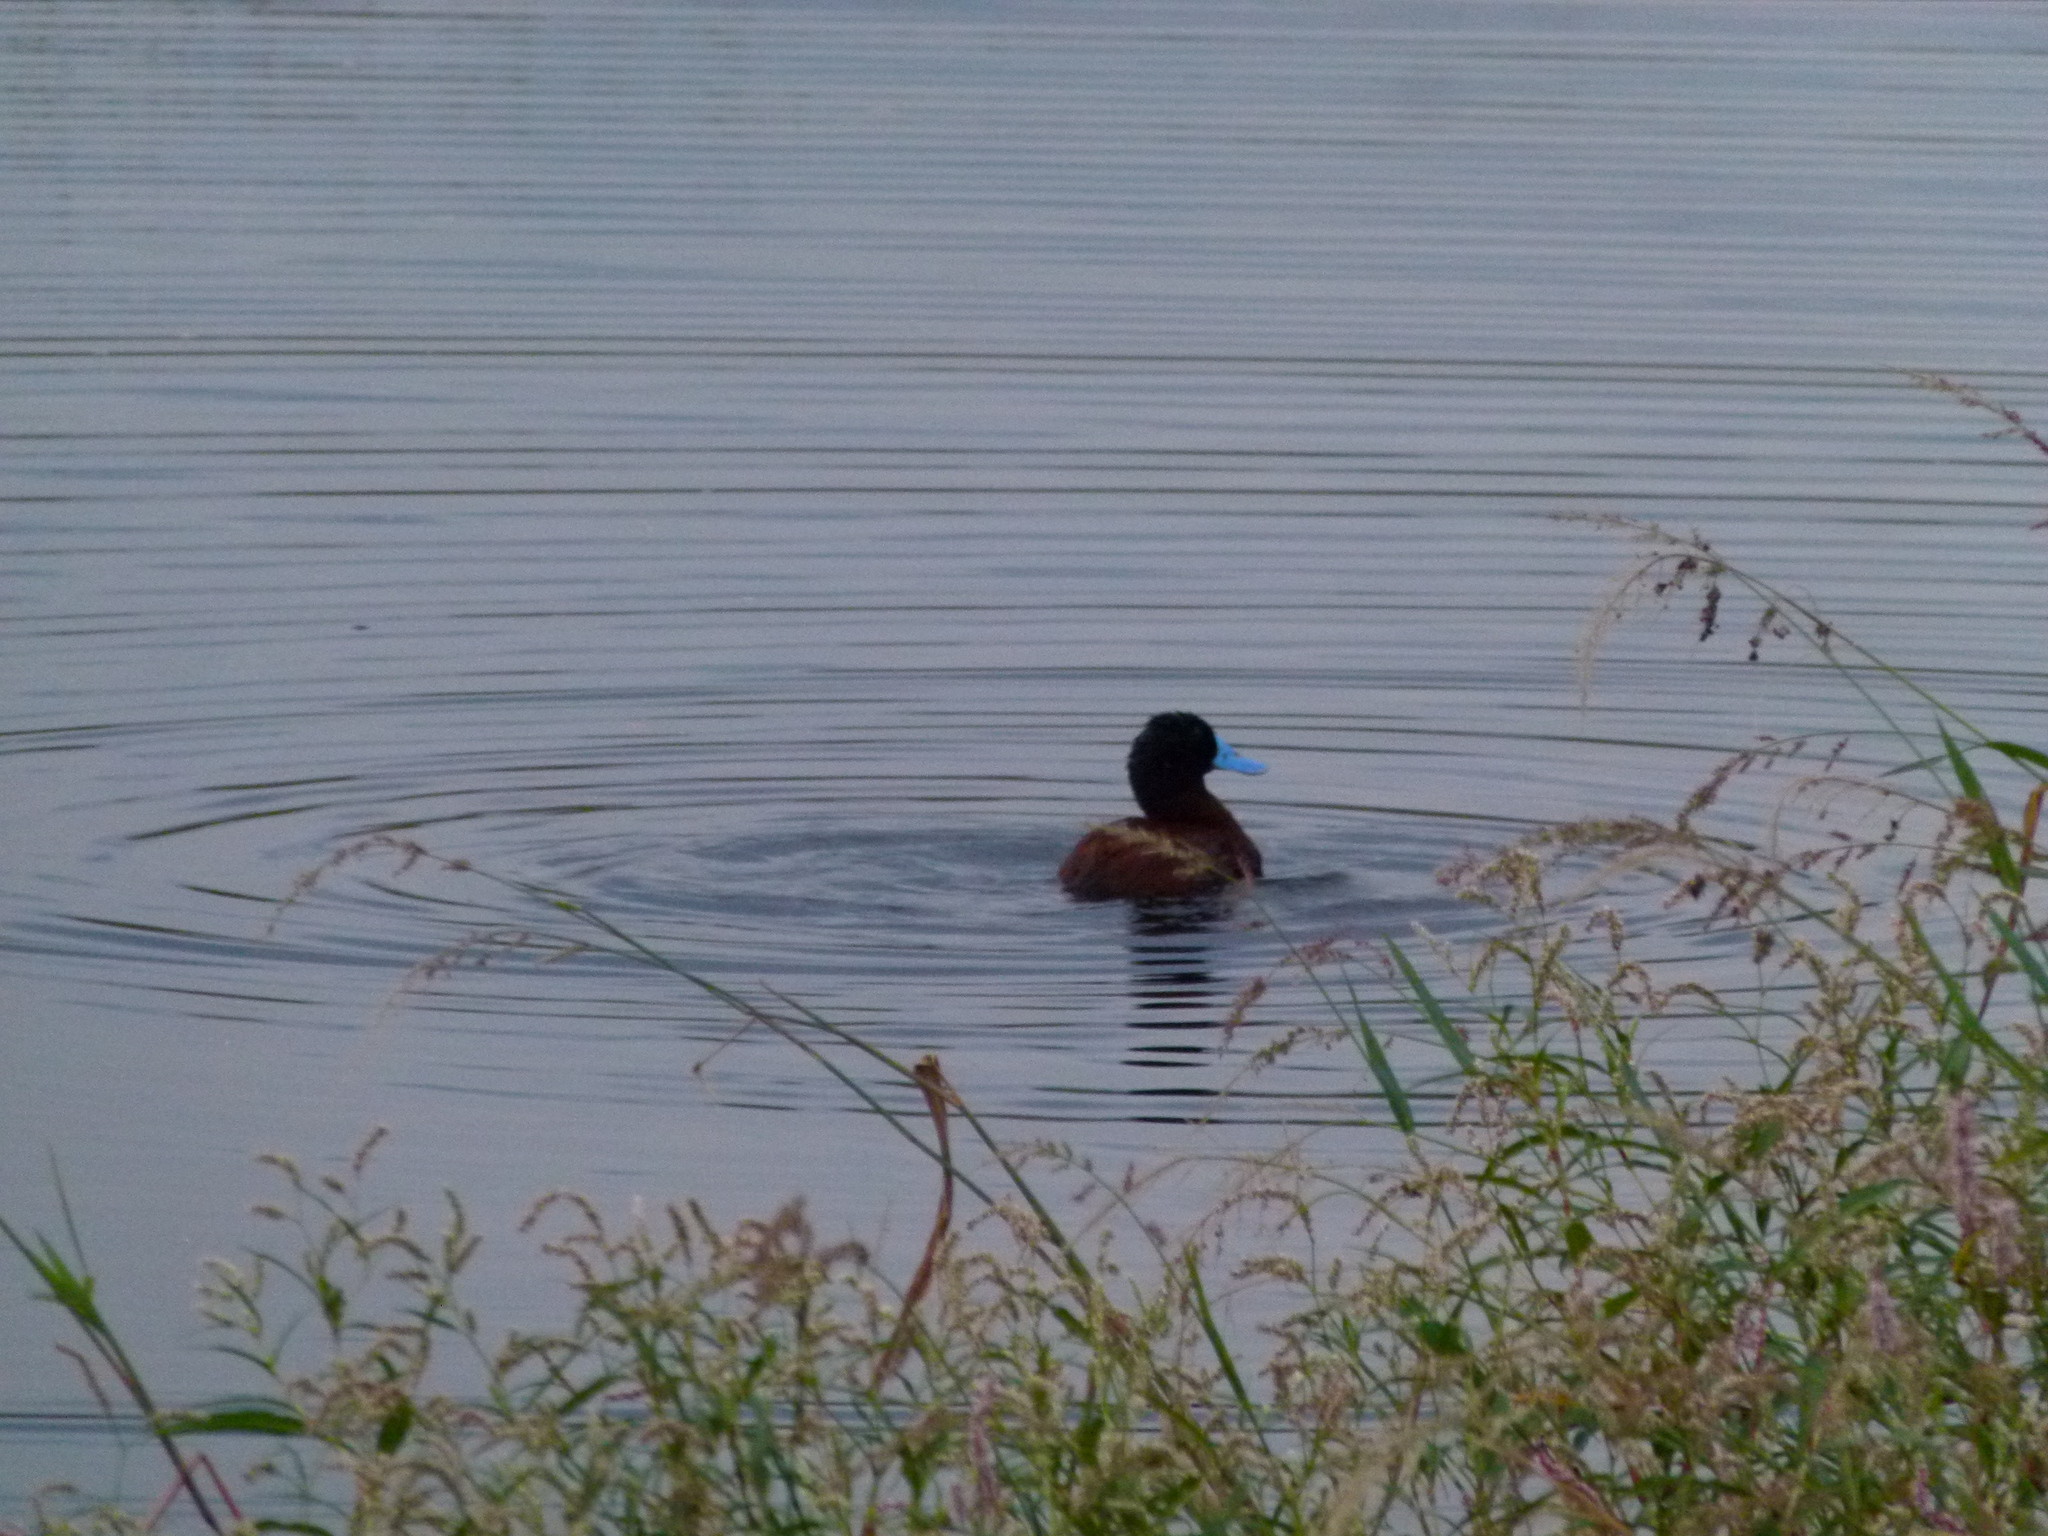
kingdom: Animalia
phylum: Chordata
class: Aves
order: Anseriformes
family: Anatidae
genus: Oxyura
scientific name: Oxyura ferruginea
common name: Andean duck
